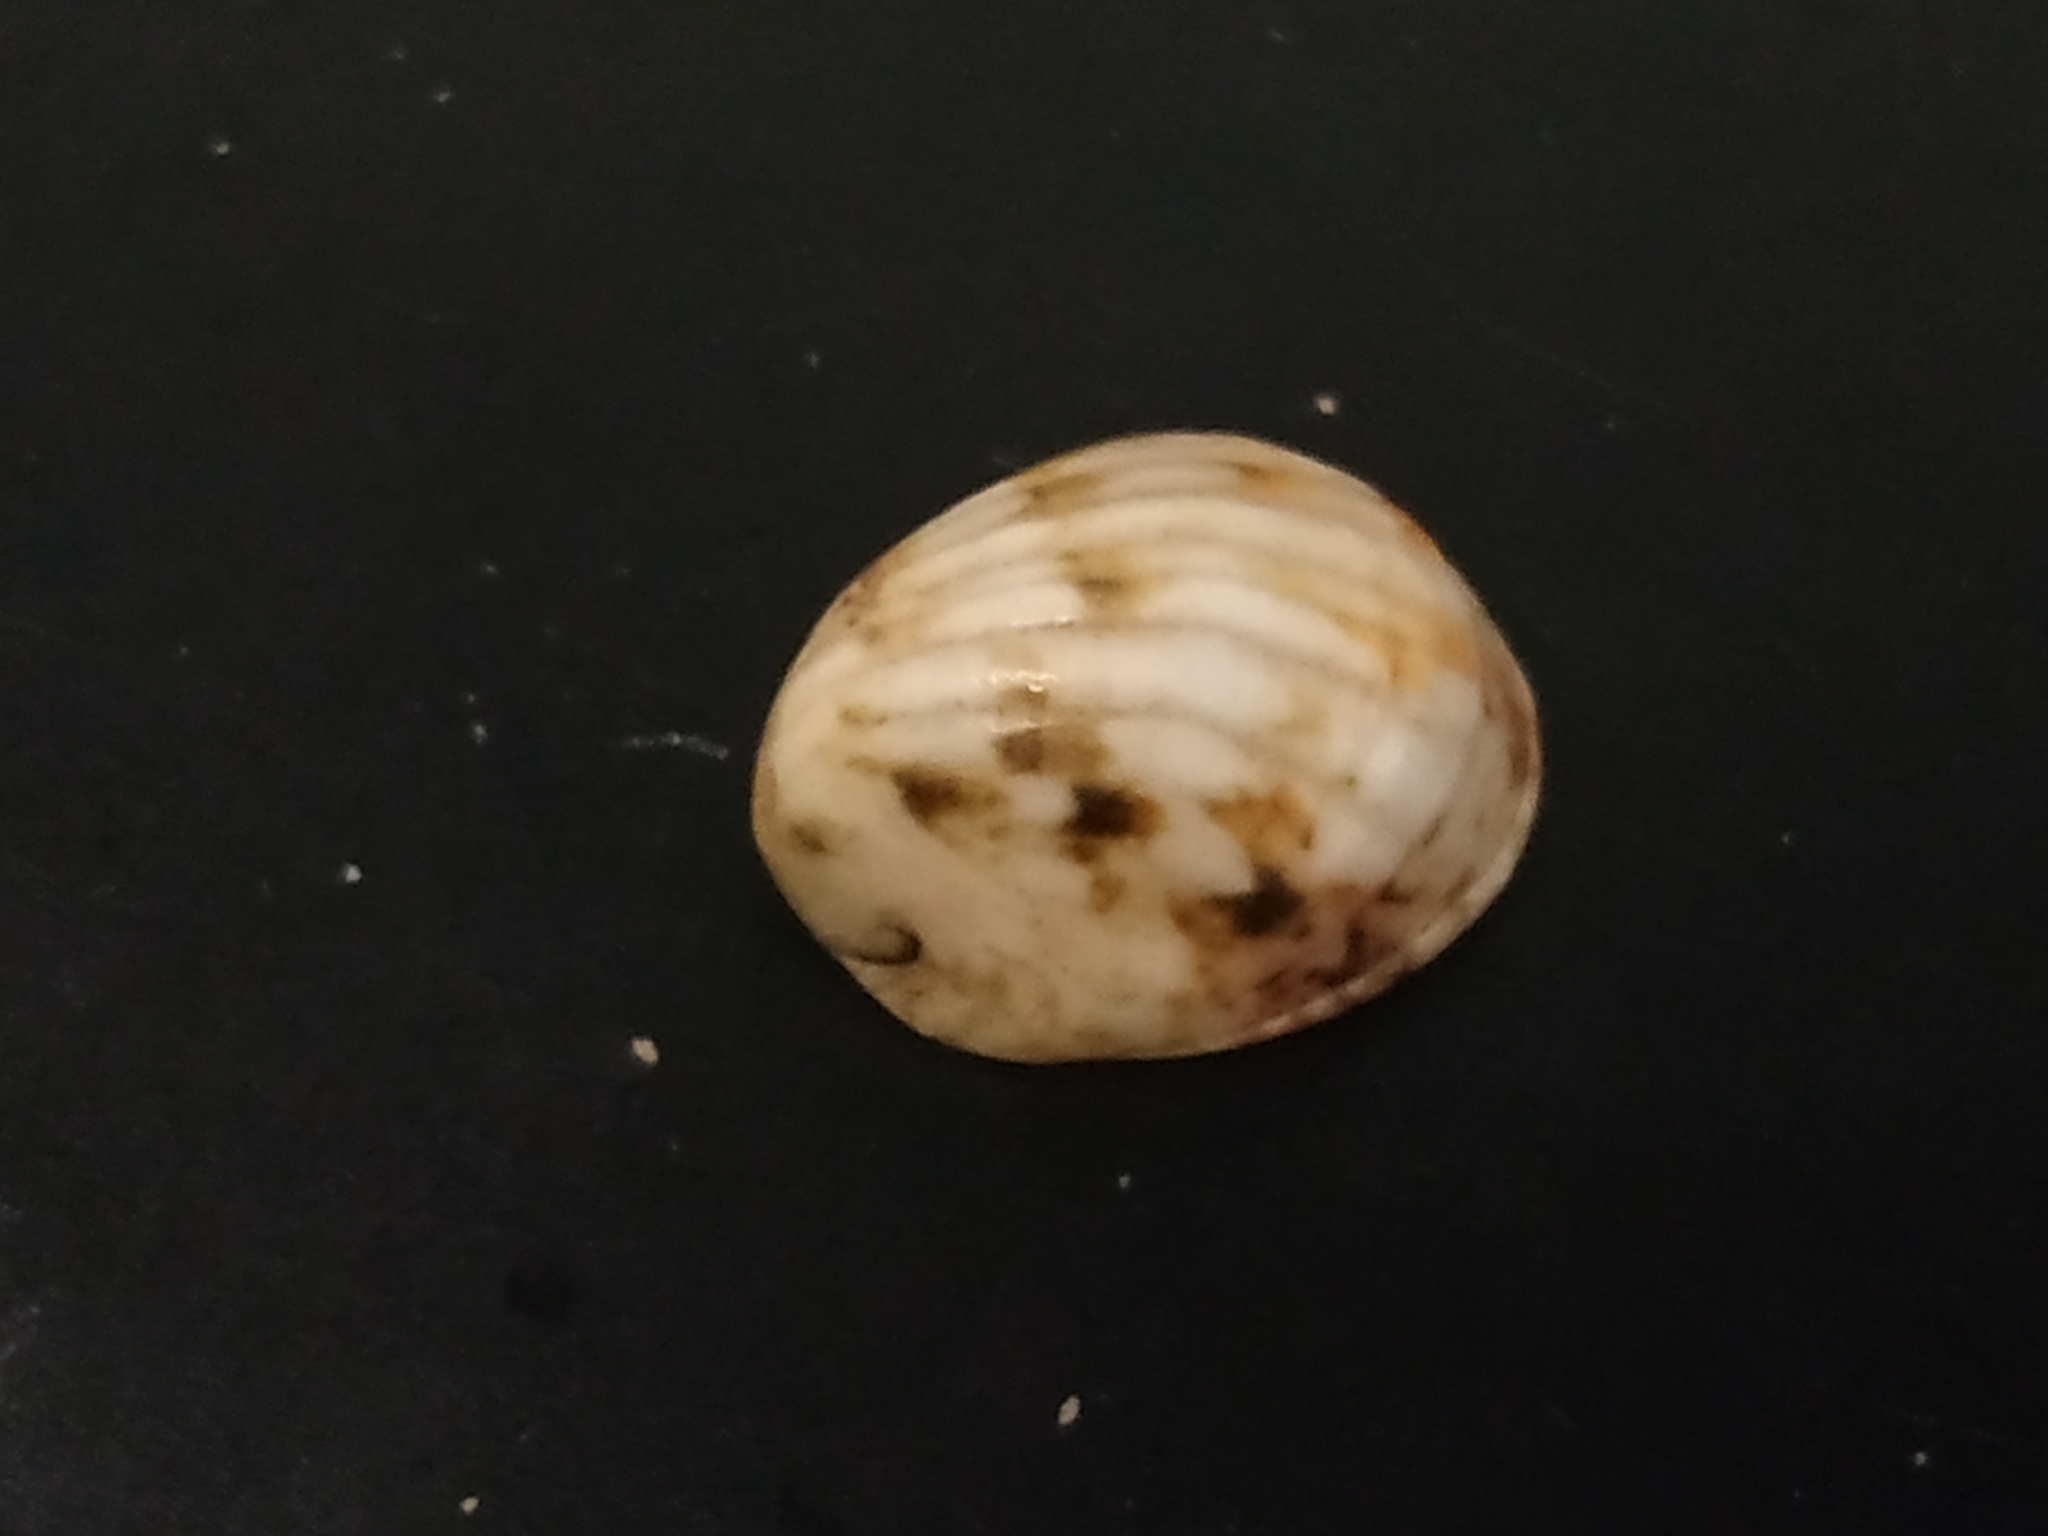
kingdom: Animalia
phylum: Mollusca
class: Gastropoda
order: Cycloneritida
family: Neritidae
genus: Nerita
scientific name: Nerita albicilla
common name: Blotched nerite
